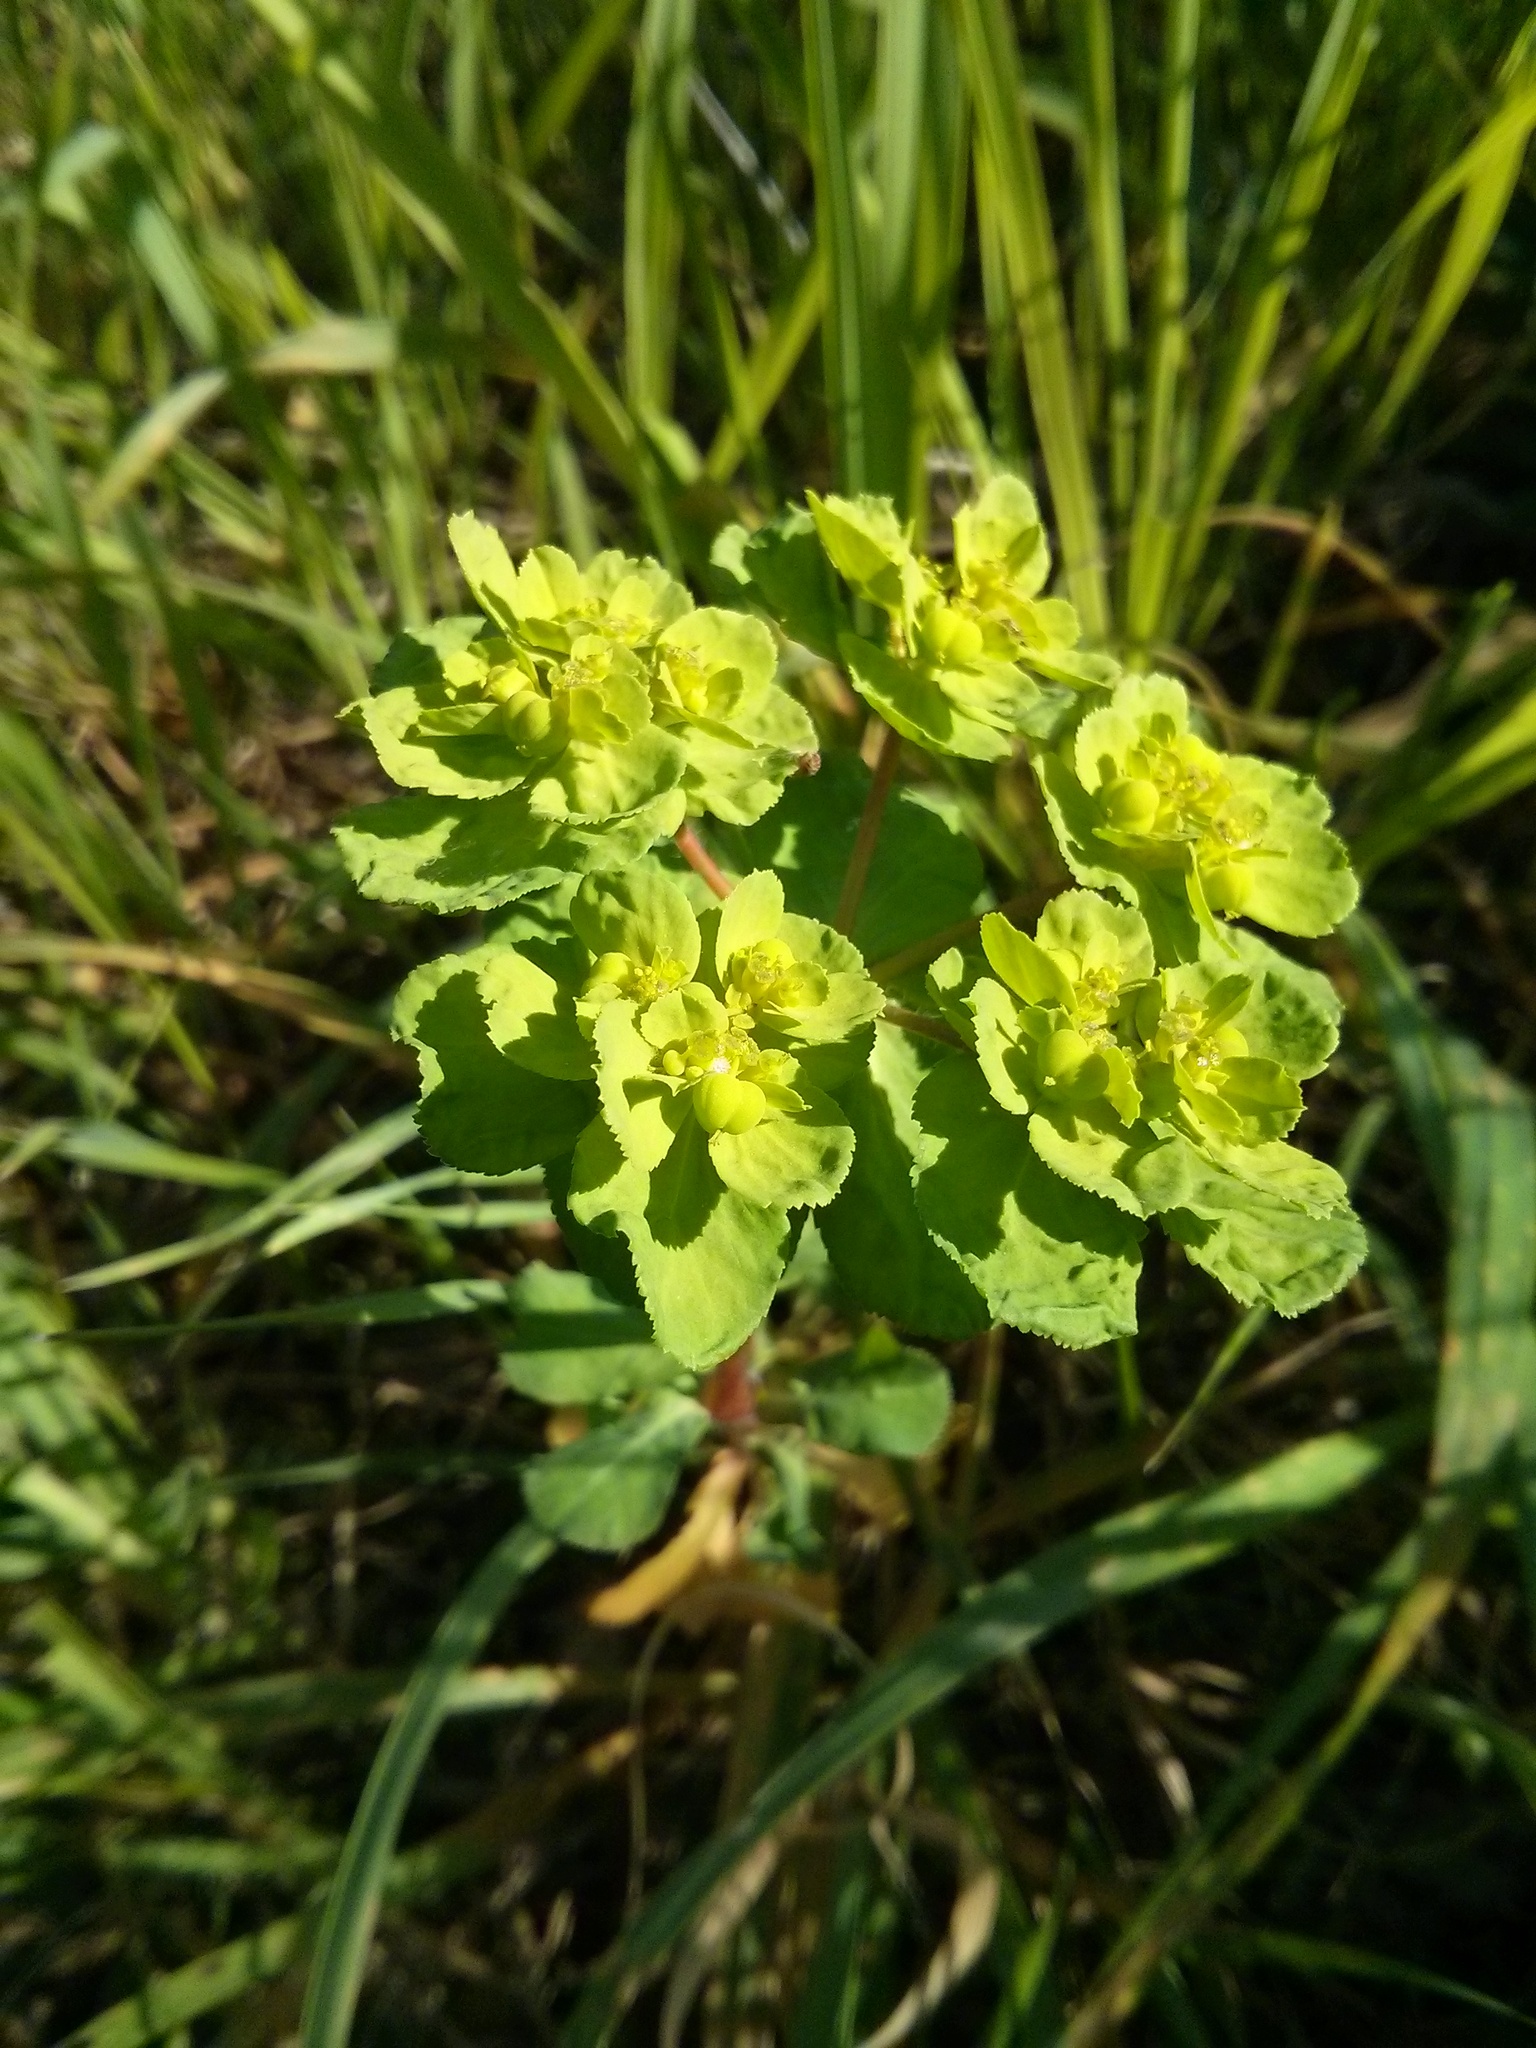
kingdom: Plantae
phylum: Tracheophyta
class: Magnoliopsida
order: Malpighiales
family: Euphorbiaceae
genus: Euphorbia
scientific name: Euphorbia helioscopia
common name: Sun spurge
